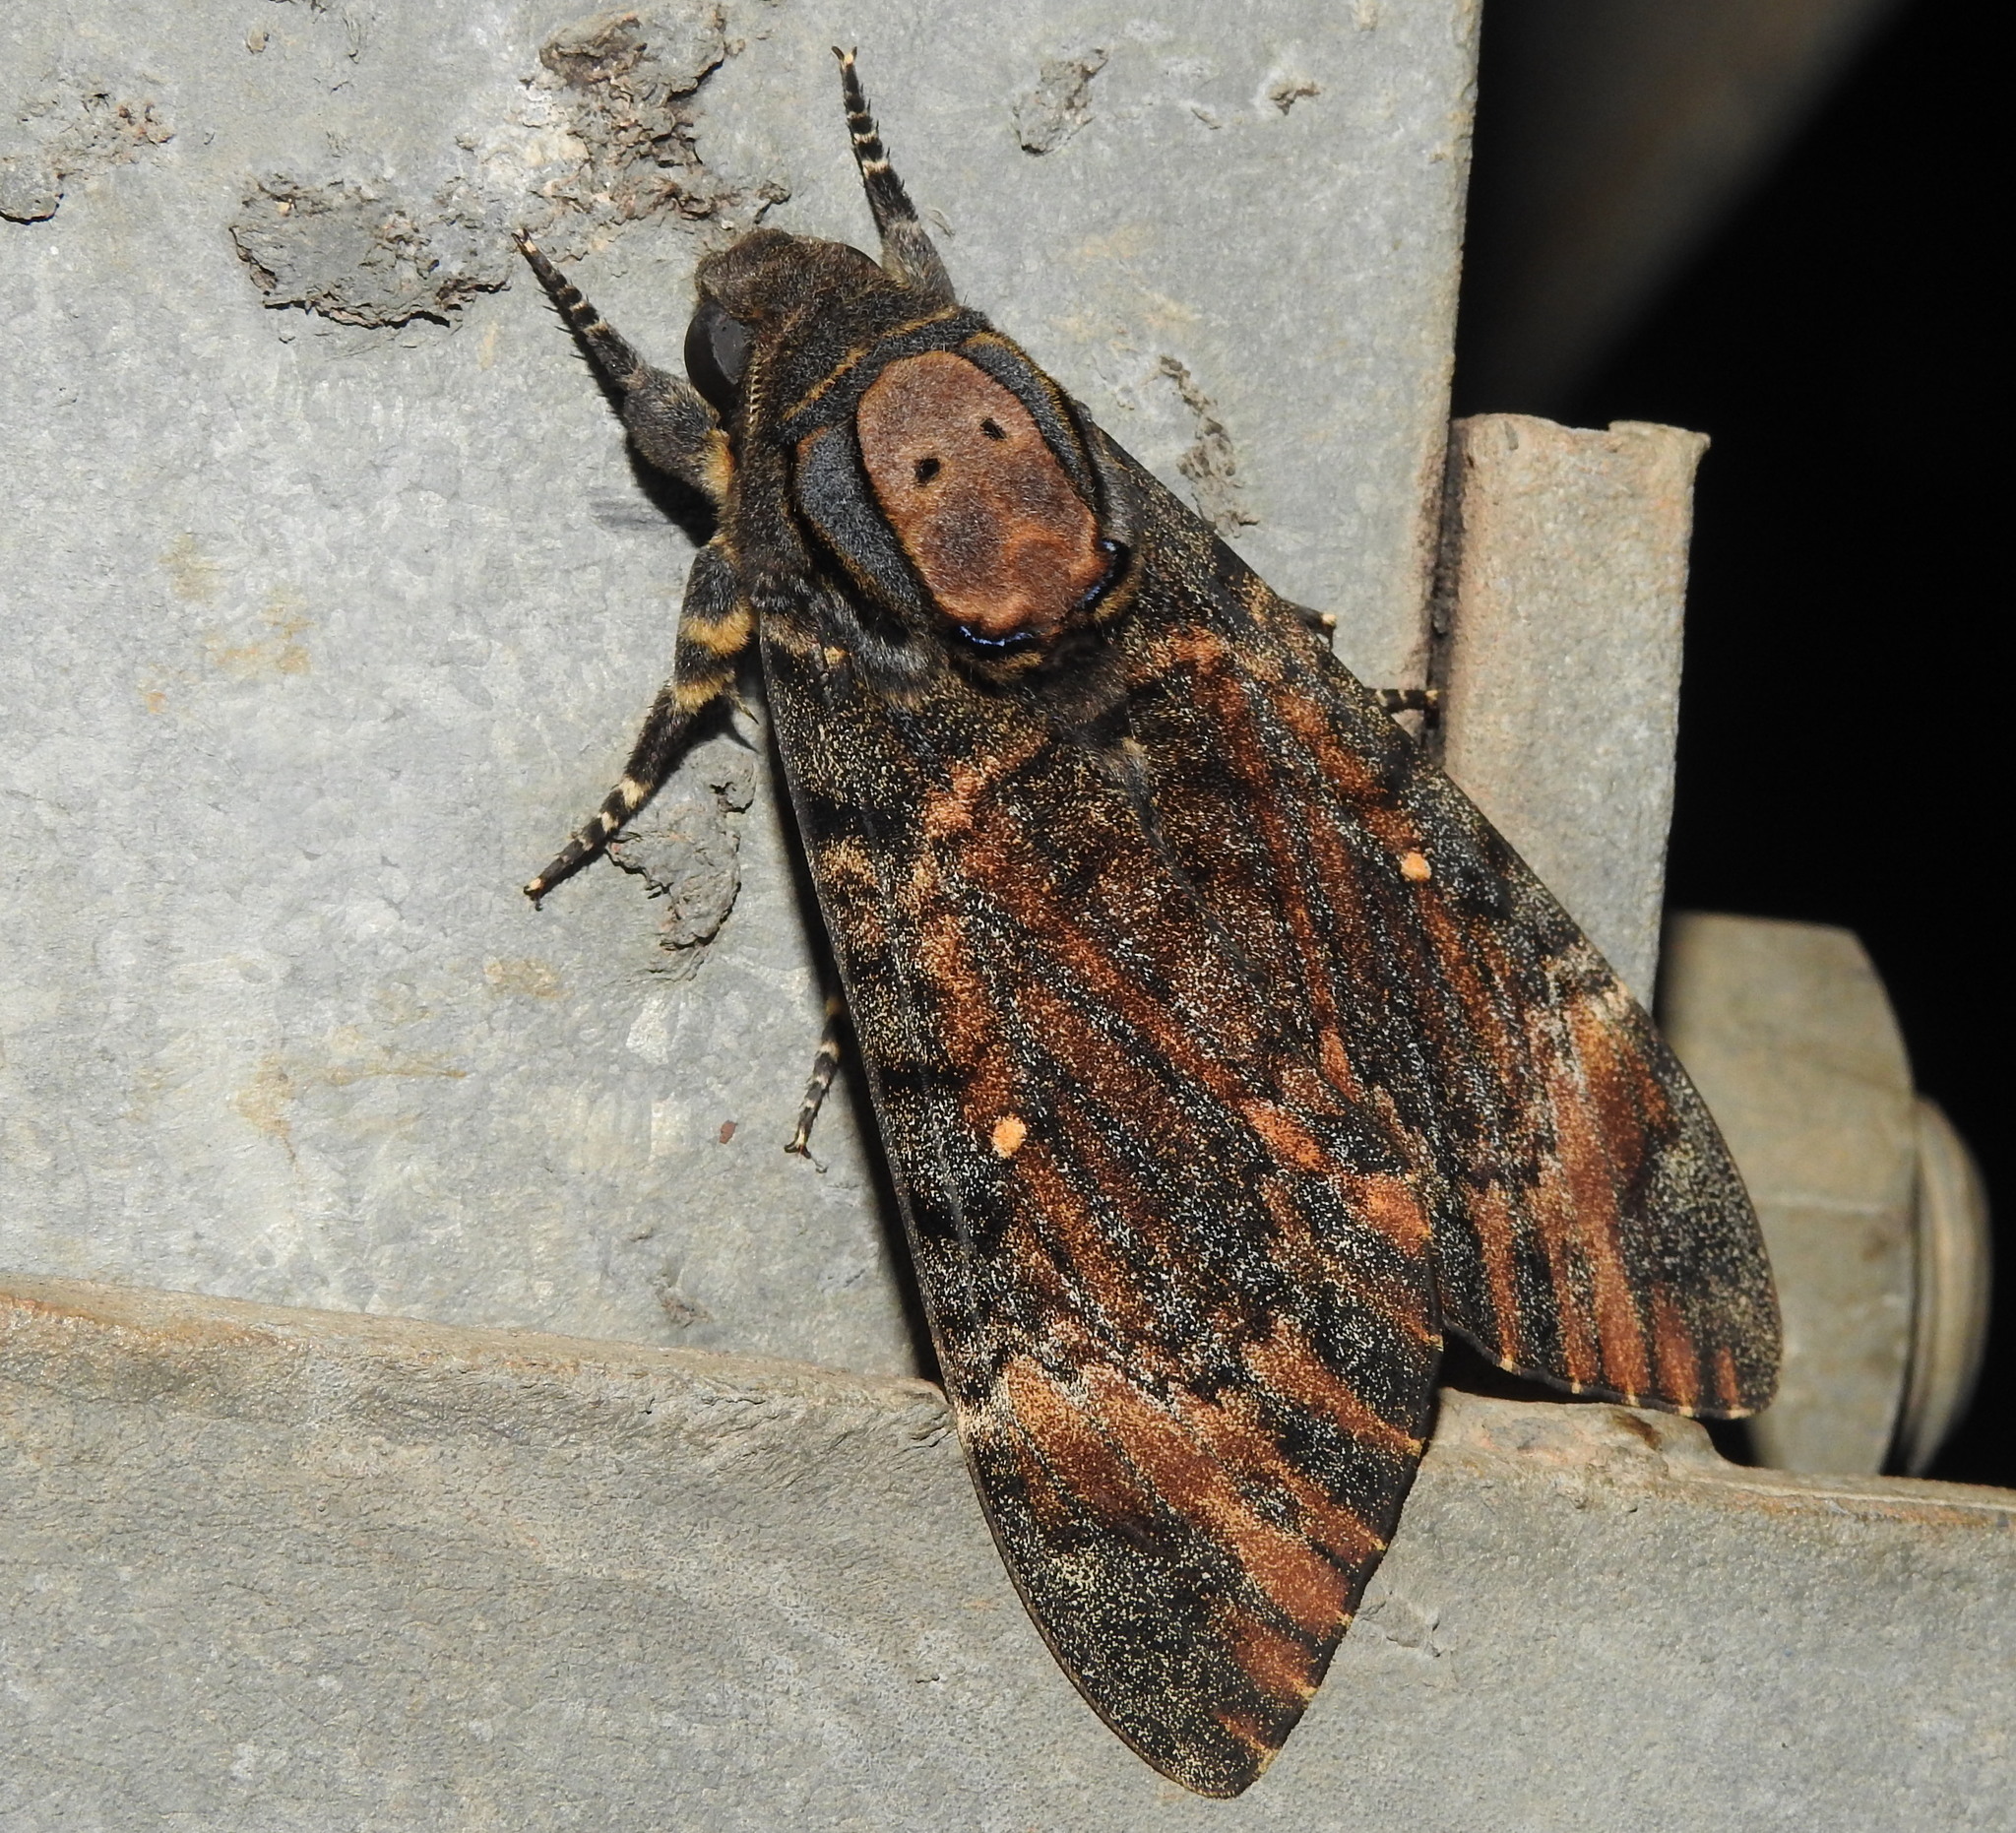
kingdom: Animalia
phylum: Arthropoda
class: Insecta
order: Lepidoptera
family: Sphingidae
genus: Acherontia
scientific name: Acherontia styx
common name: Death's-head hawk moth
